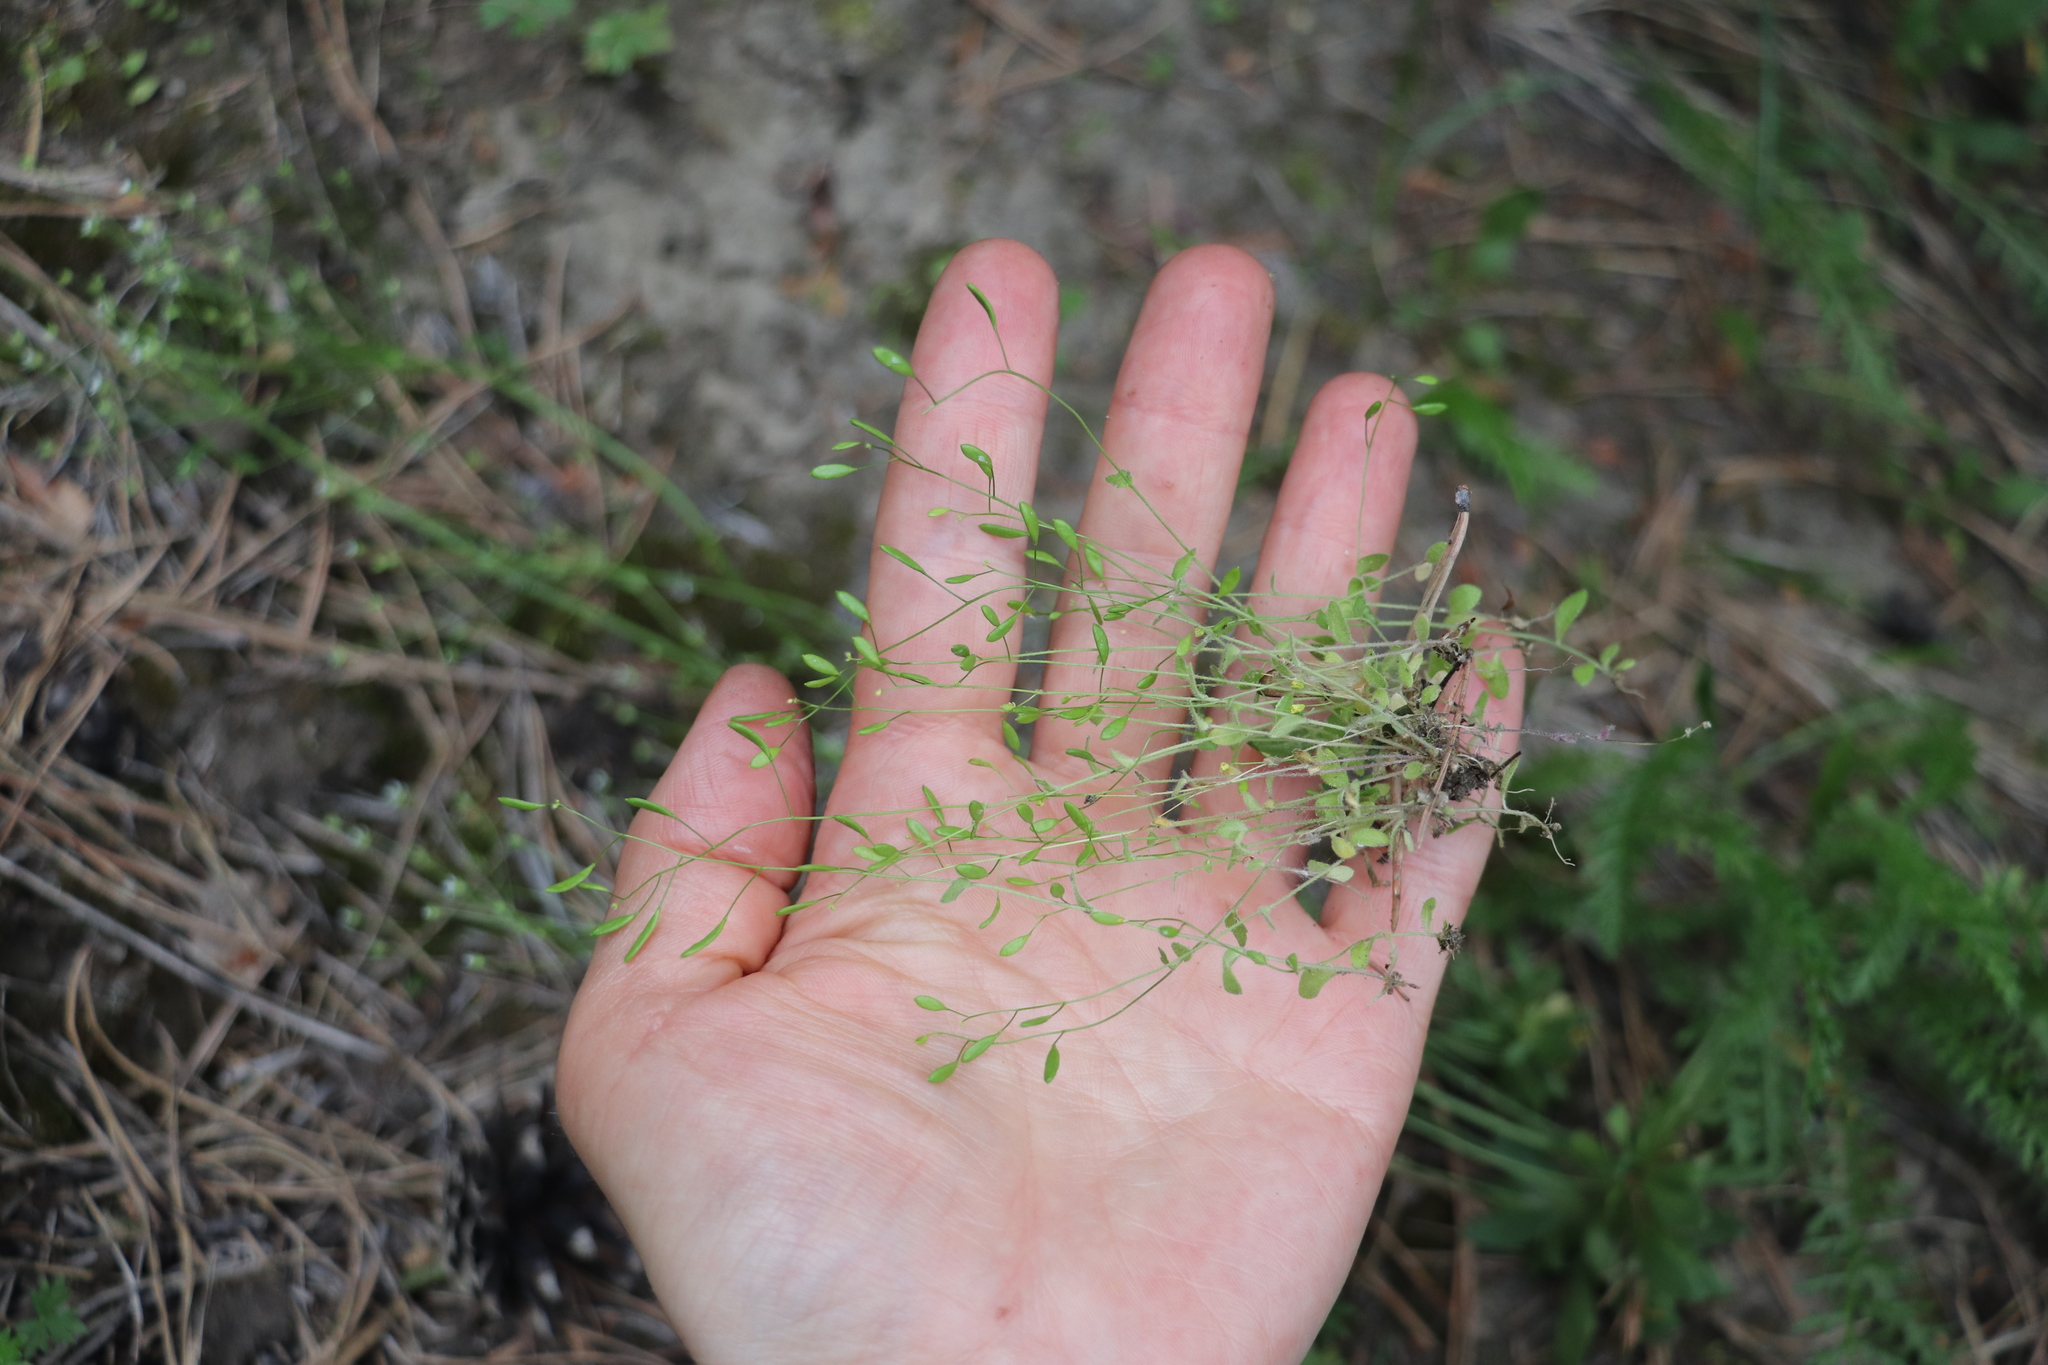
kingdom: Plantae
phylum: Tracheophyta
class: Magnoliopsida
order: Brassicales
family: Brassicaceae
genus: Draba
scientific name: Draba nemorosa
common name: Wood whitlow-grass
